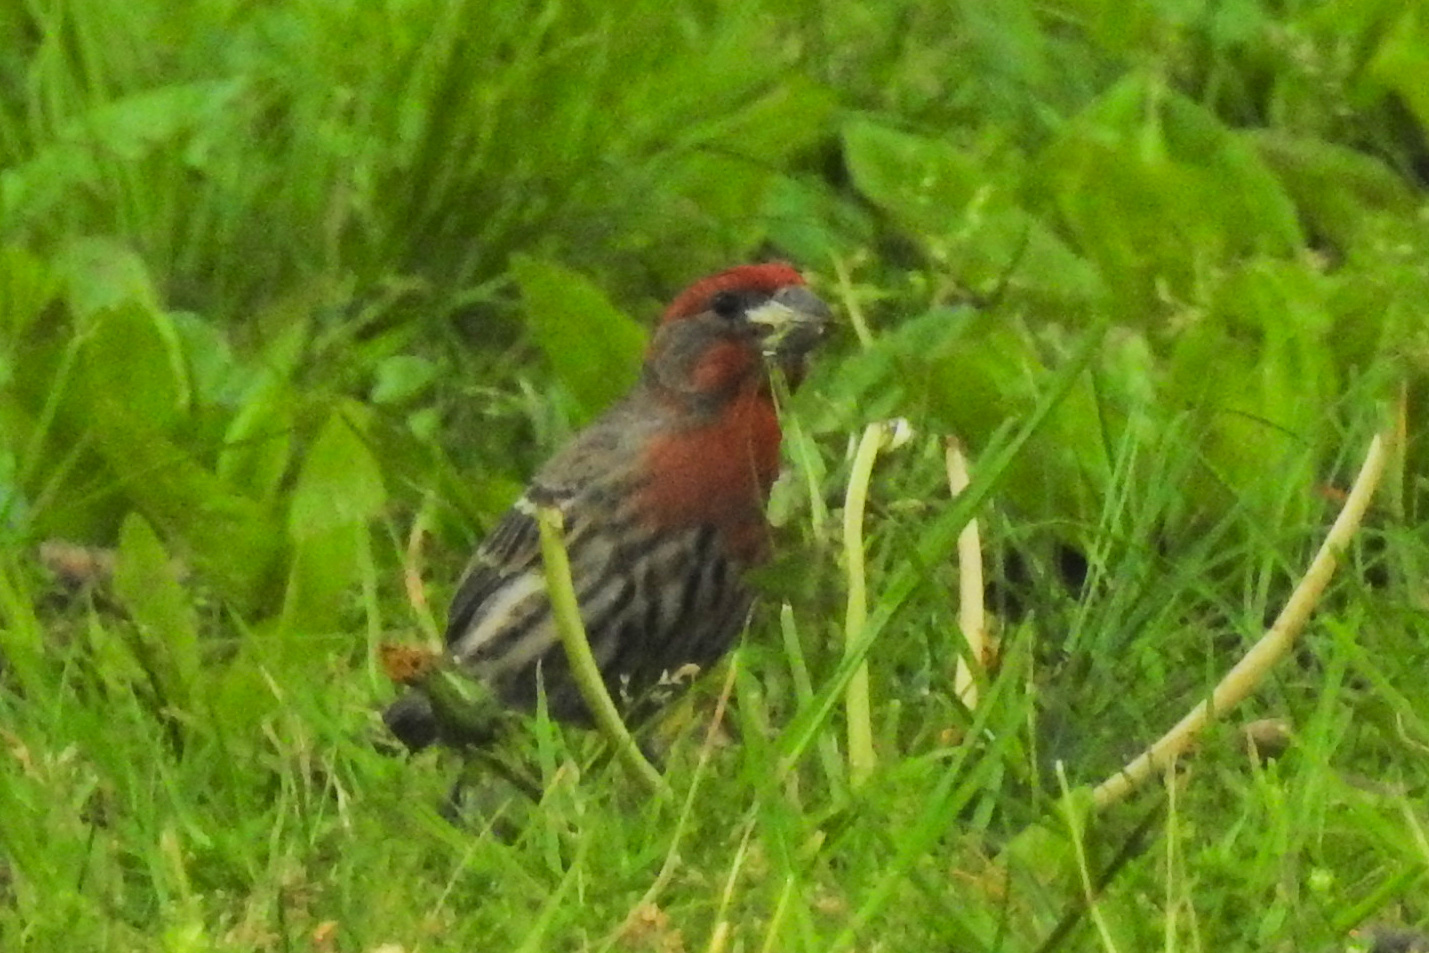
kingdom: Animalia
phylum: Chordata
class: Aves
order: Passeriformes
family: Fringillidae
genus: Haemorhous
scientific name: Haemorhous mexicanus
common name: House finch
